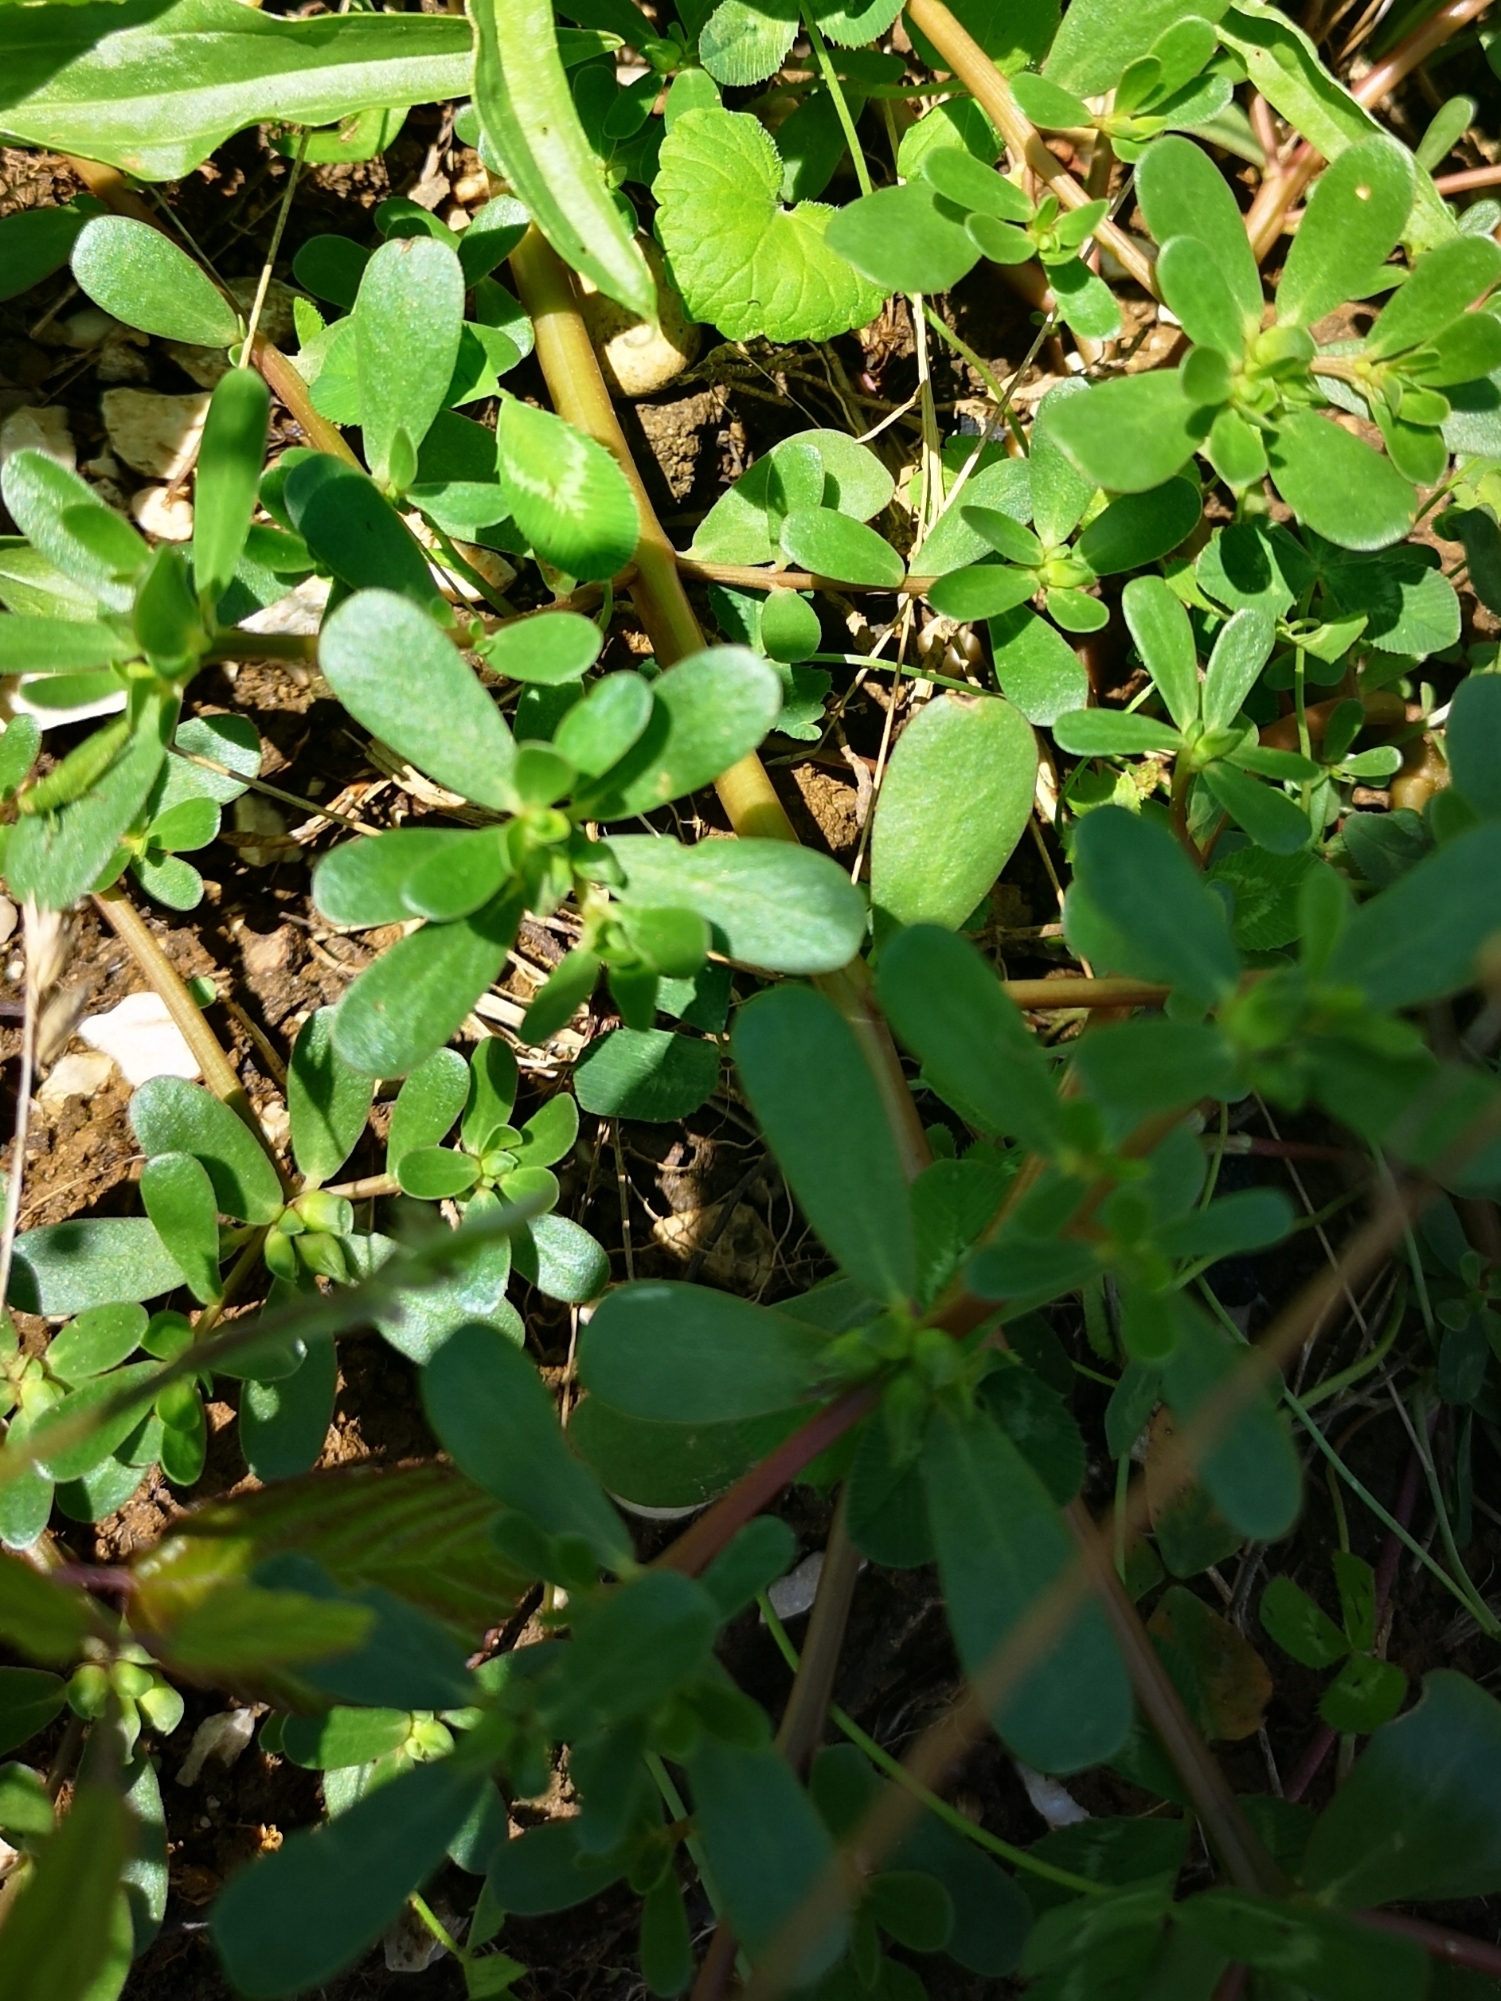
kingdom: Plantae
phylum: Tracheophyta
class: Magnoliopsida
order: Caryophyllales
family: Portulacaceae
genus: Portulaca
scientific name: Portulaca oleracea
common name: Common purslane
